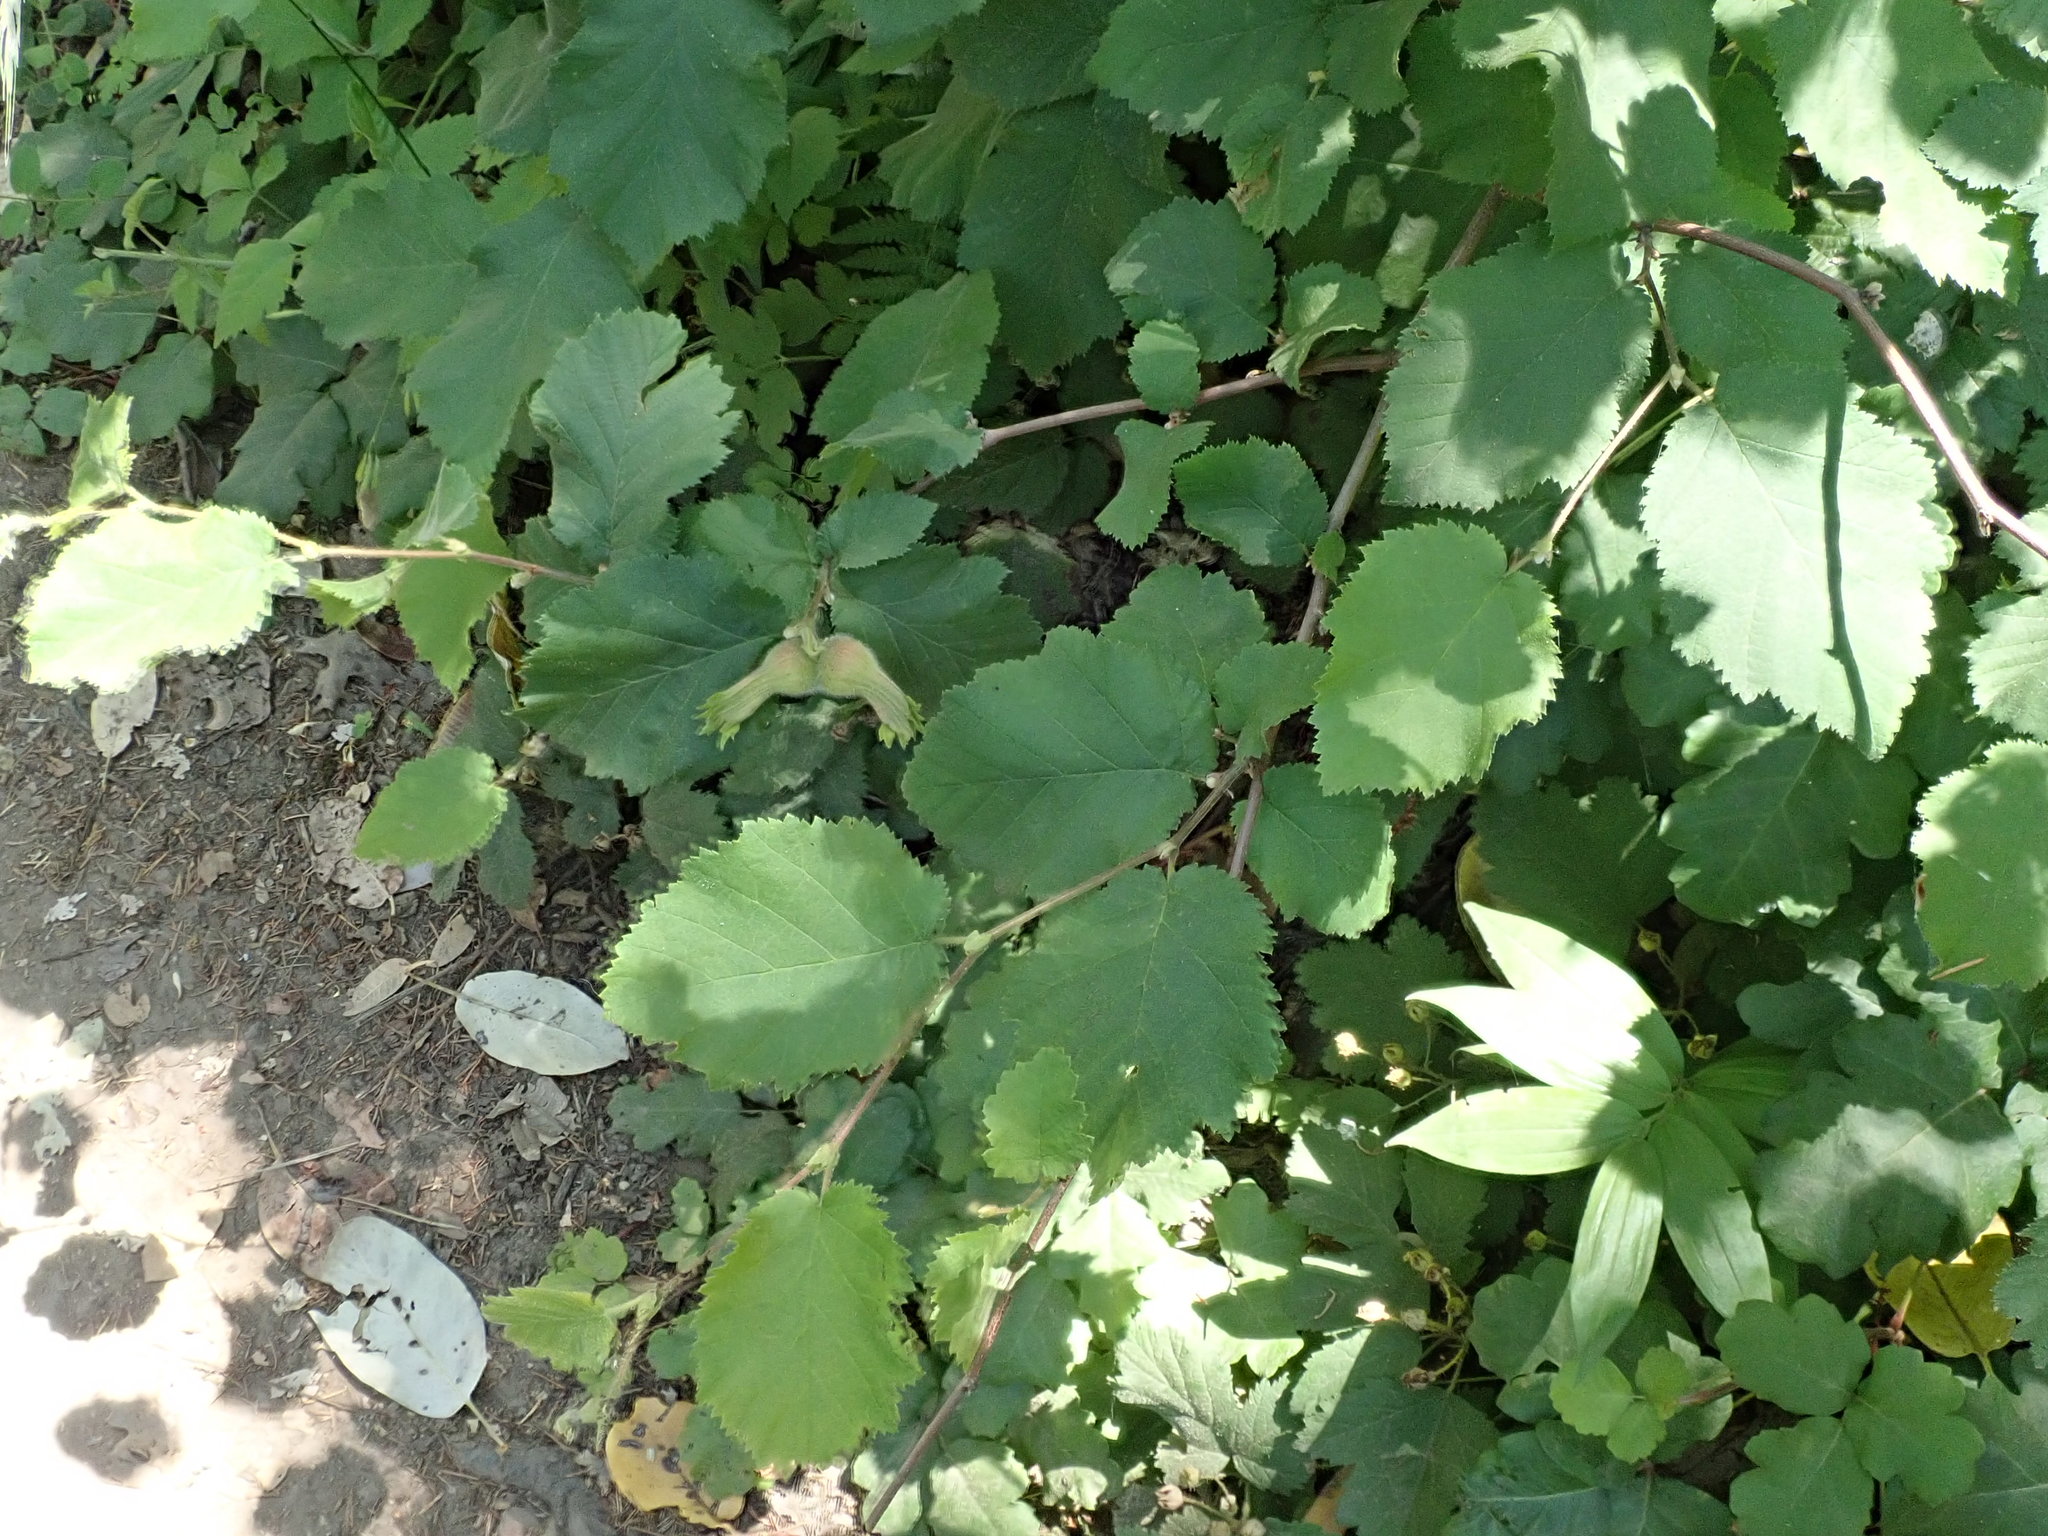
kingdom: Plantae
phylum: Tracheophyta
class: Magnoliopsida
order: Fagales
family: Betulaceae
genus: Corylus
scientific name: Corylus cornuta
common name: Beaked hazel
